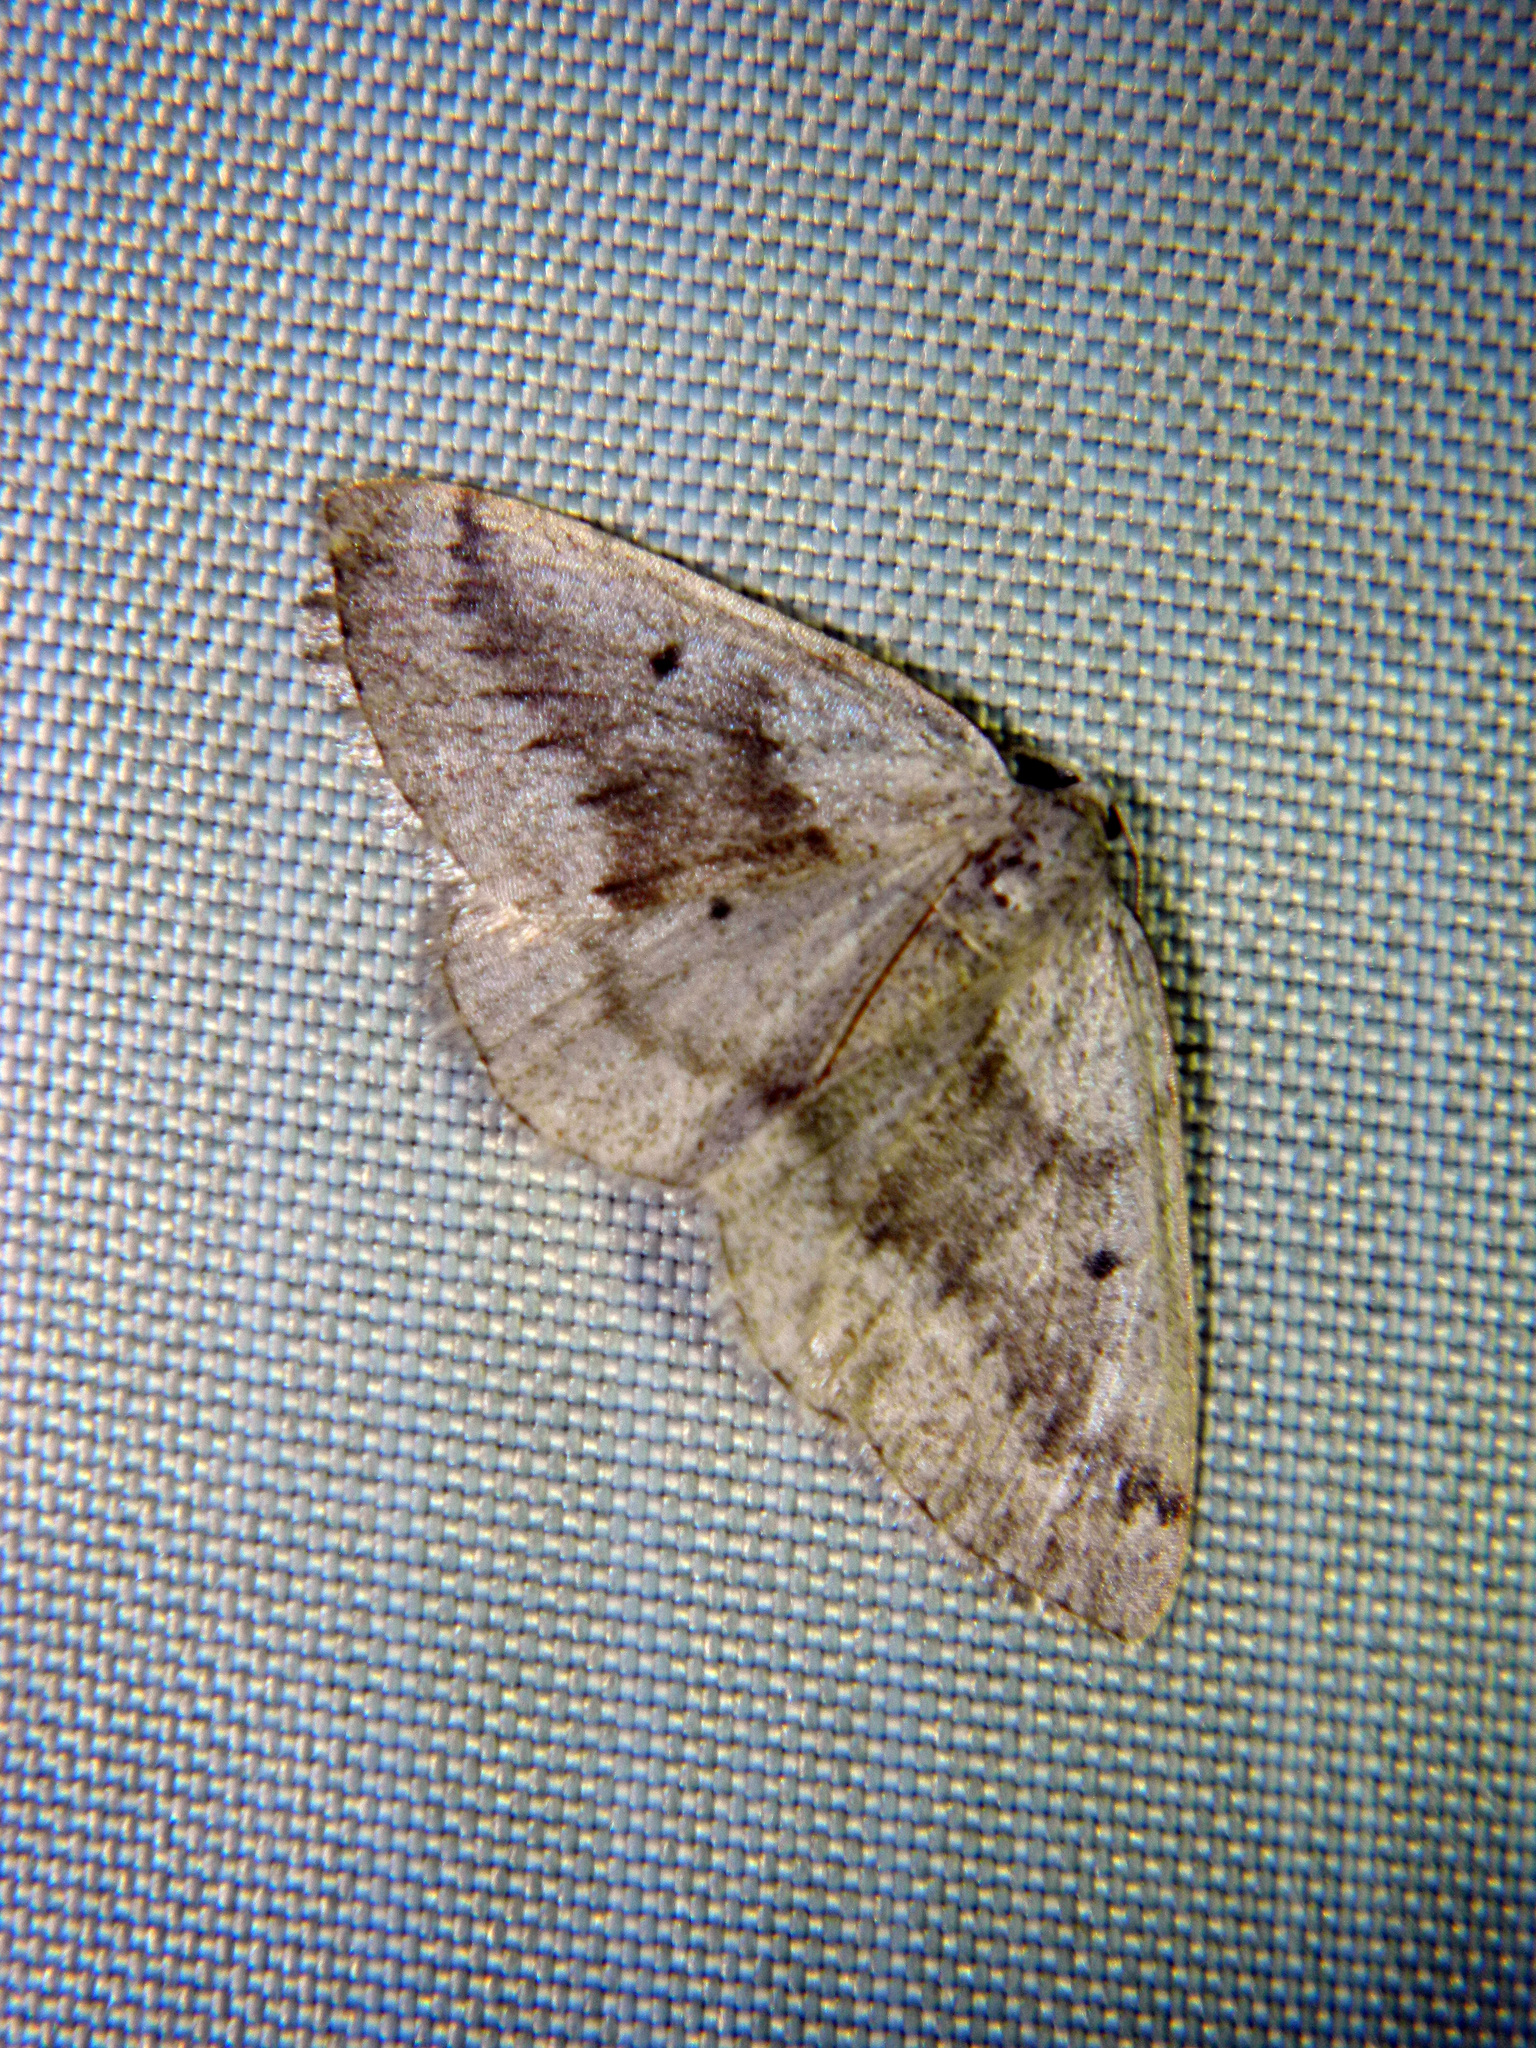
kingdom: Animalia
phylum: Arthropoda
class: Insecta
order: Lepidoptera
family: Geometridae
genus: Lomographa
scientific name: Lomographa glomeraria
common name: Gray spring moth
